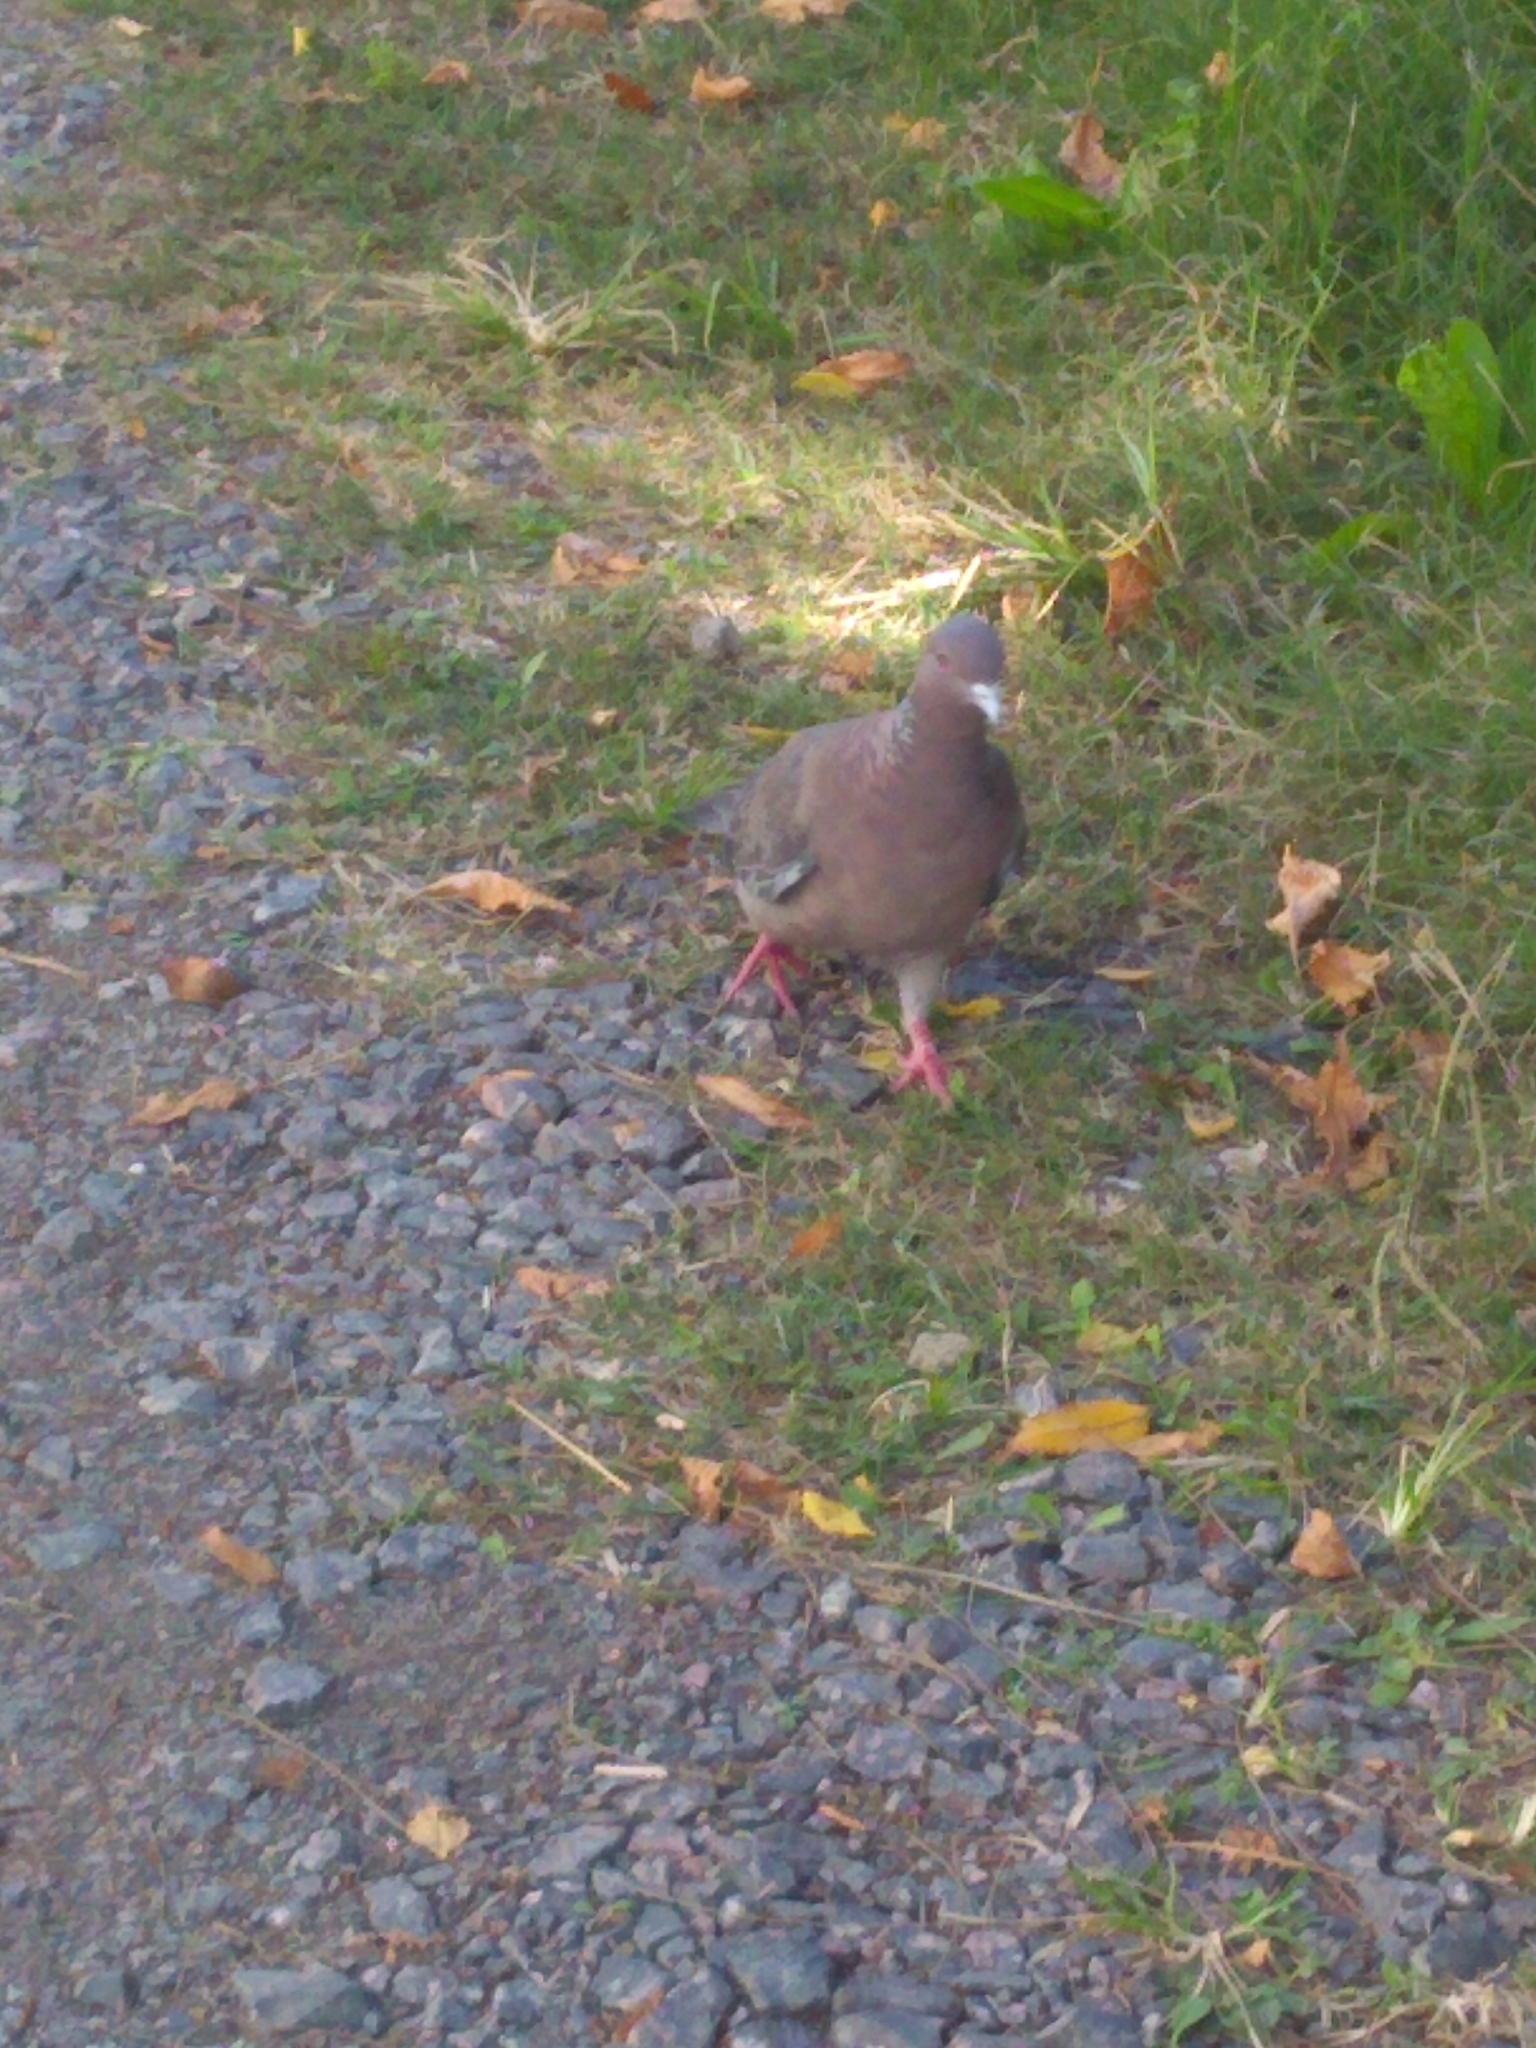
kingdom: Animalia
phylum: Chordata
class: Aves
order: Columbiformes
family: Columbidae
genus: Patagioenas
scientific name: Patagioenas picazuro
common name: Picazuro pigeon
